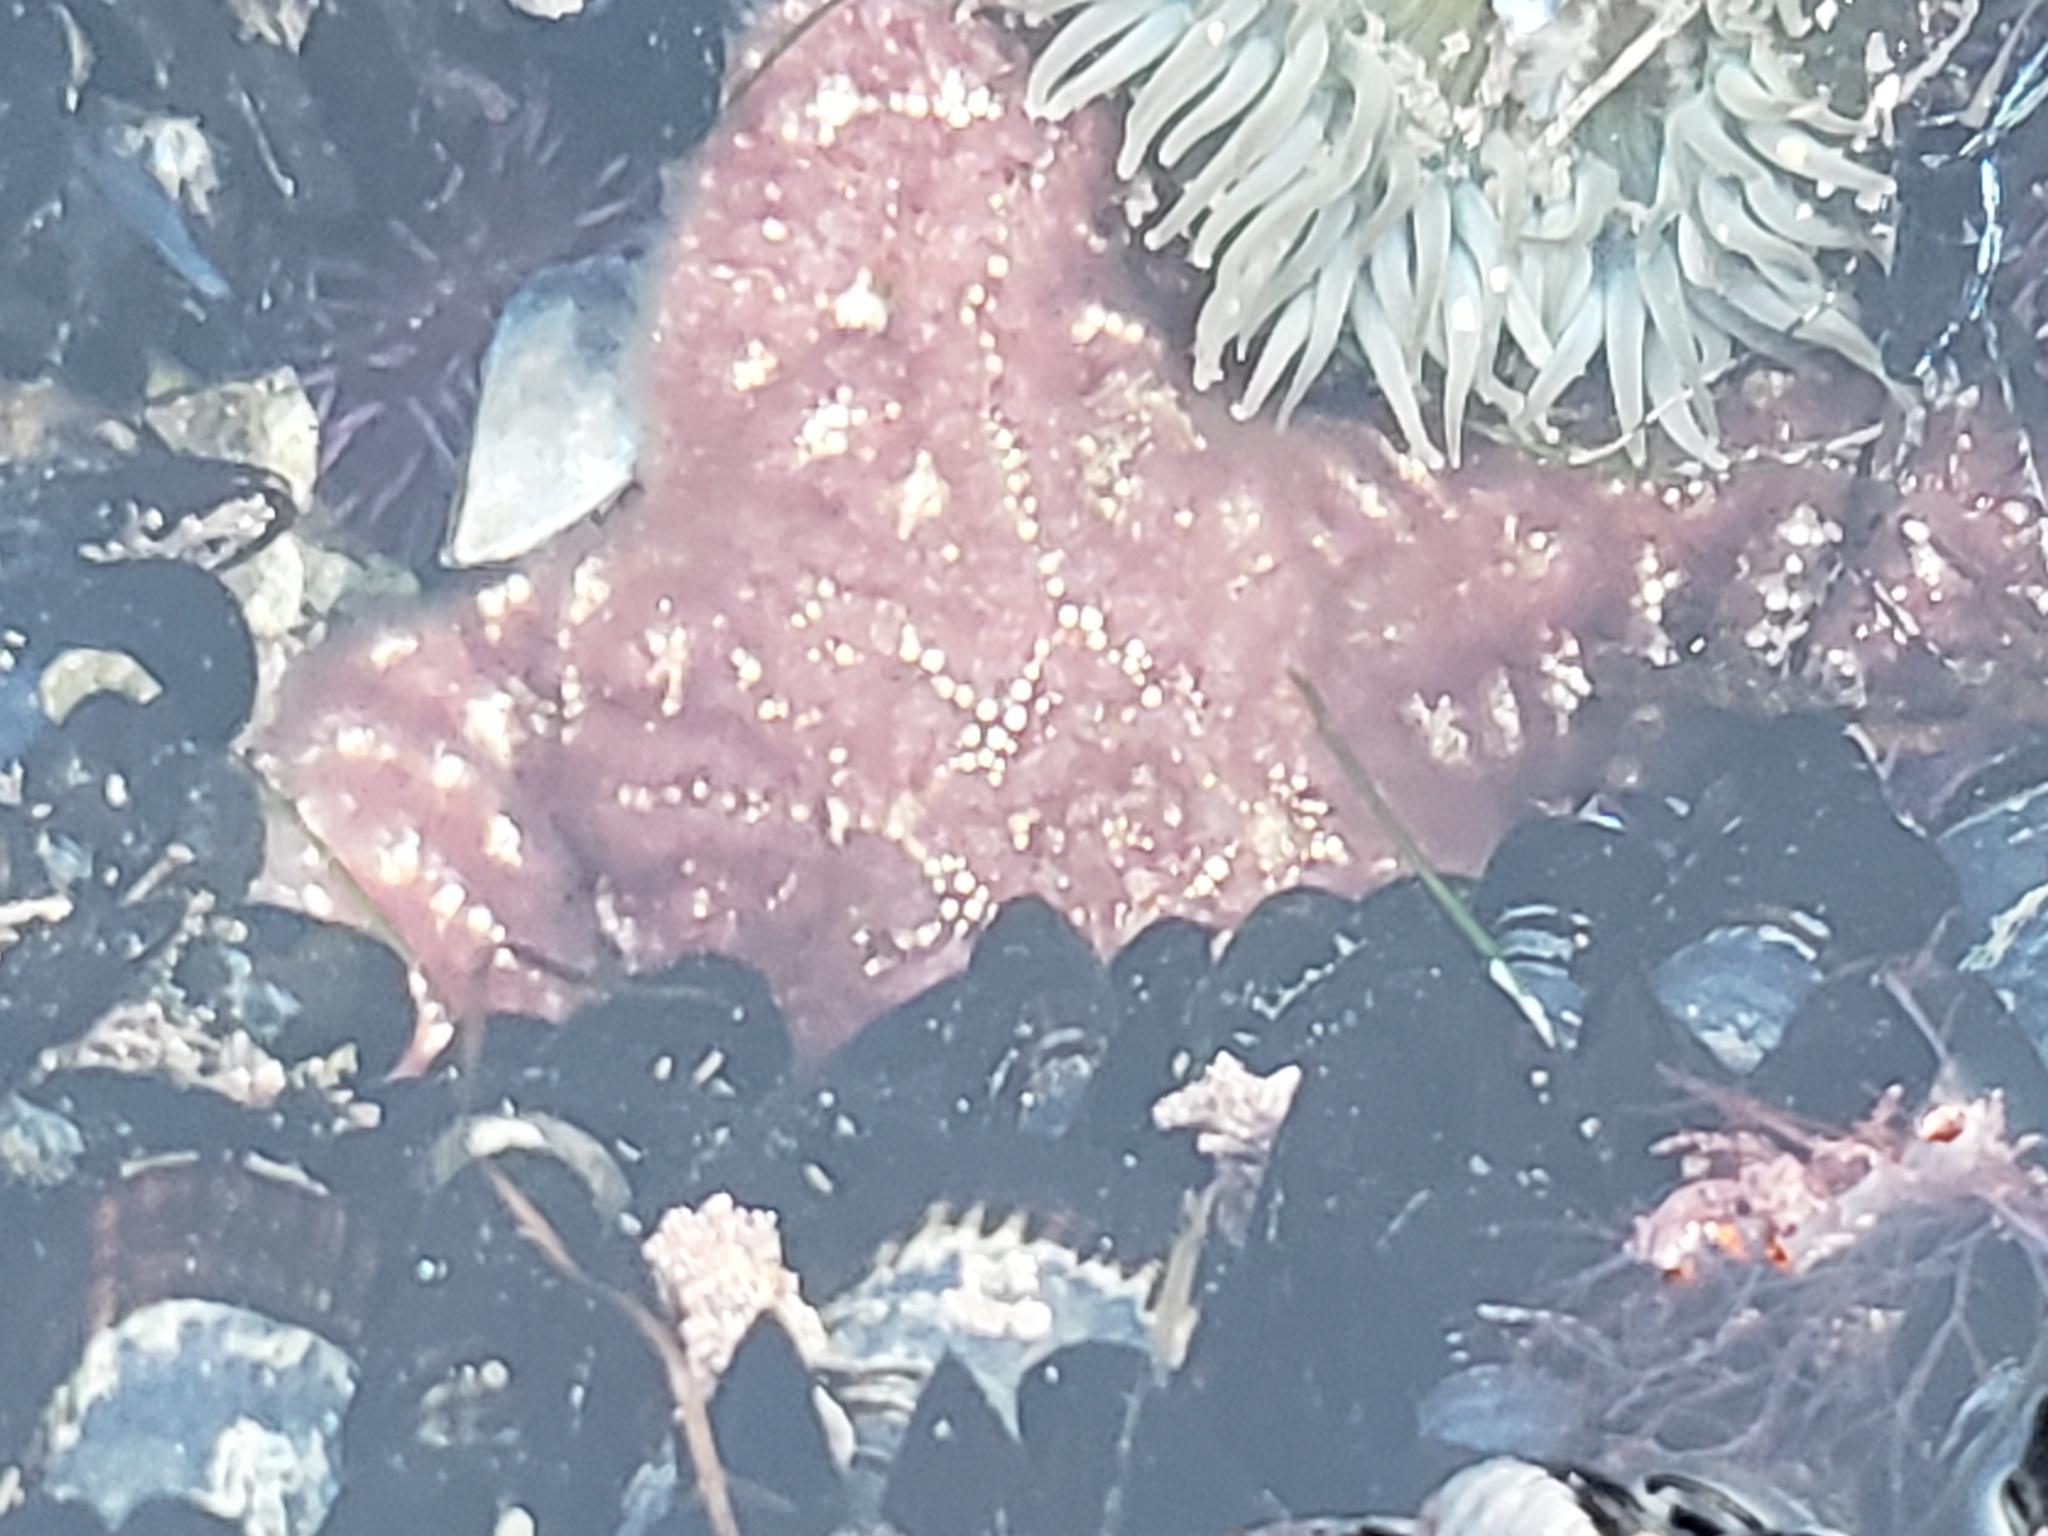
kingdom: Animalia
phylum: Echinodermata
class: Asteroidea
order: Forcipulatida
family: Asteriidae
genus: Pisaster
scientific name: Pisaster ochraceus
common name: Ochre stars
